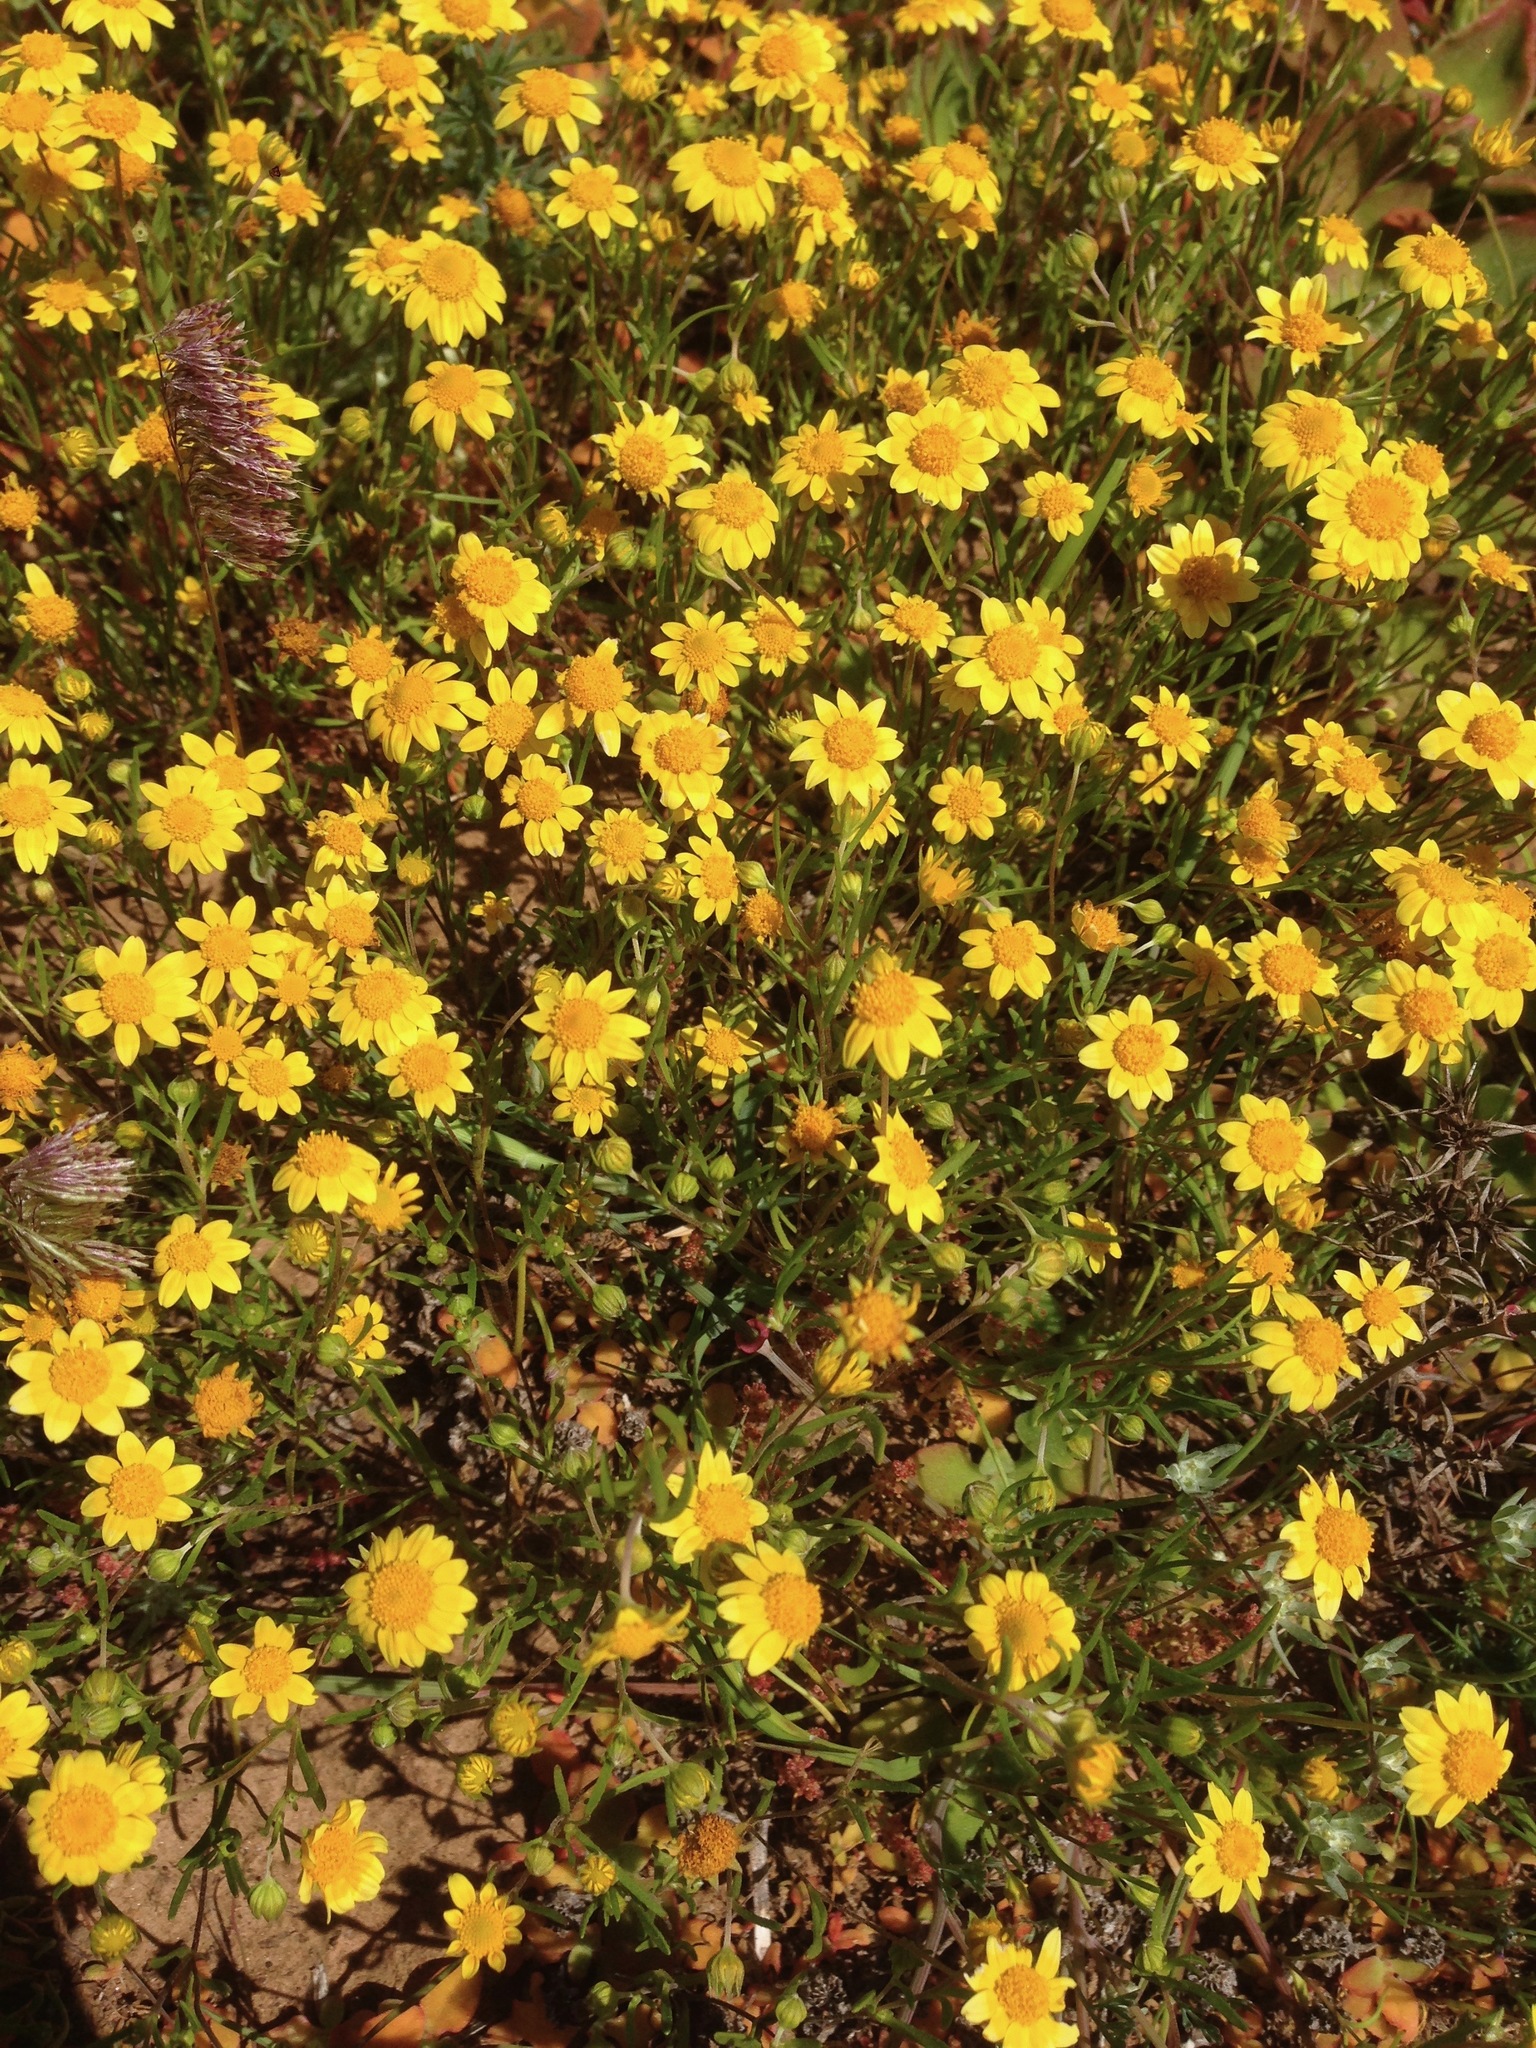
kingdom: Plantae
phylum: Tracheophyta
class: Magnoliopsida
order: Asterales
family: Asteraceae
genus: Lasthenia
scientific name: Lasthenia gracilis
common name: Common goldfields
